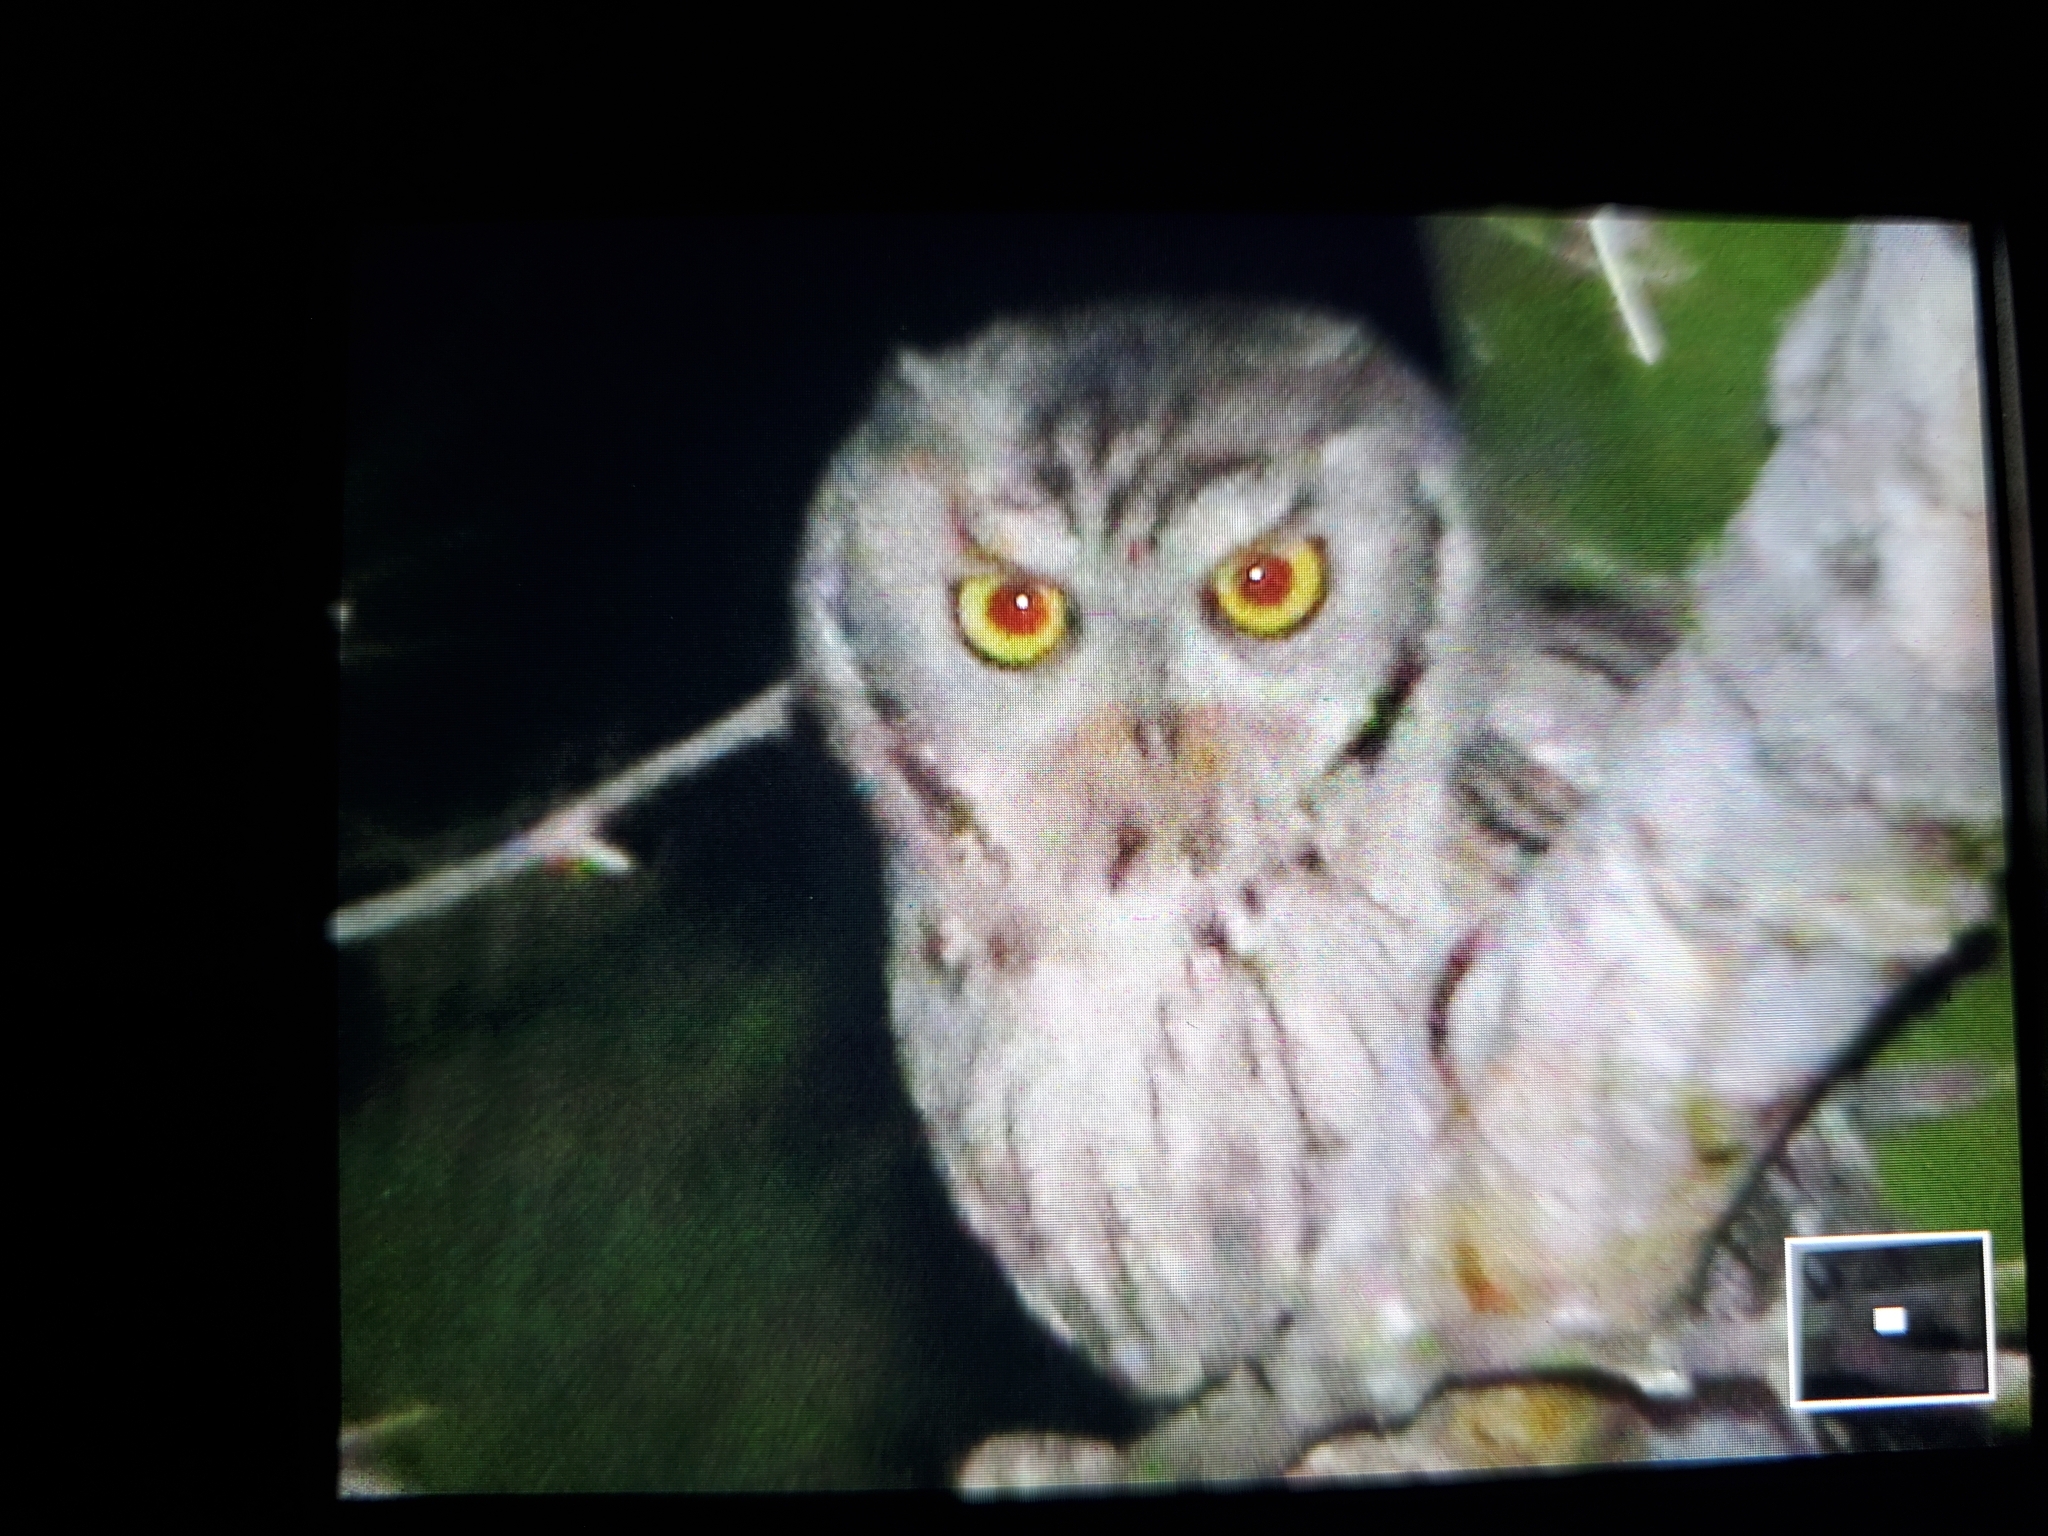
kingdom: Animalia
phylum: Chordata
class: Aves
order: Strigiformes
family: Strigidae
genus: Megascops
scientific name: Megascops kennicottii
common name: Western screech-owl
